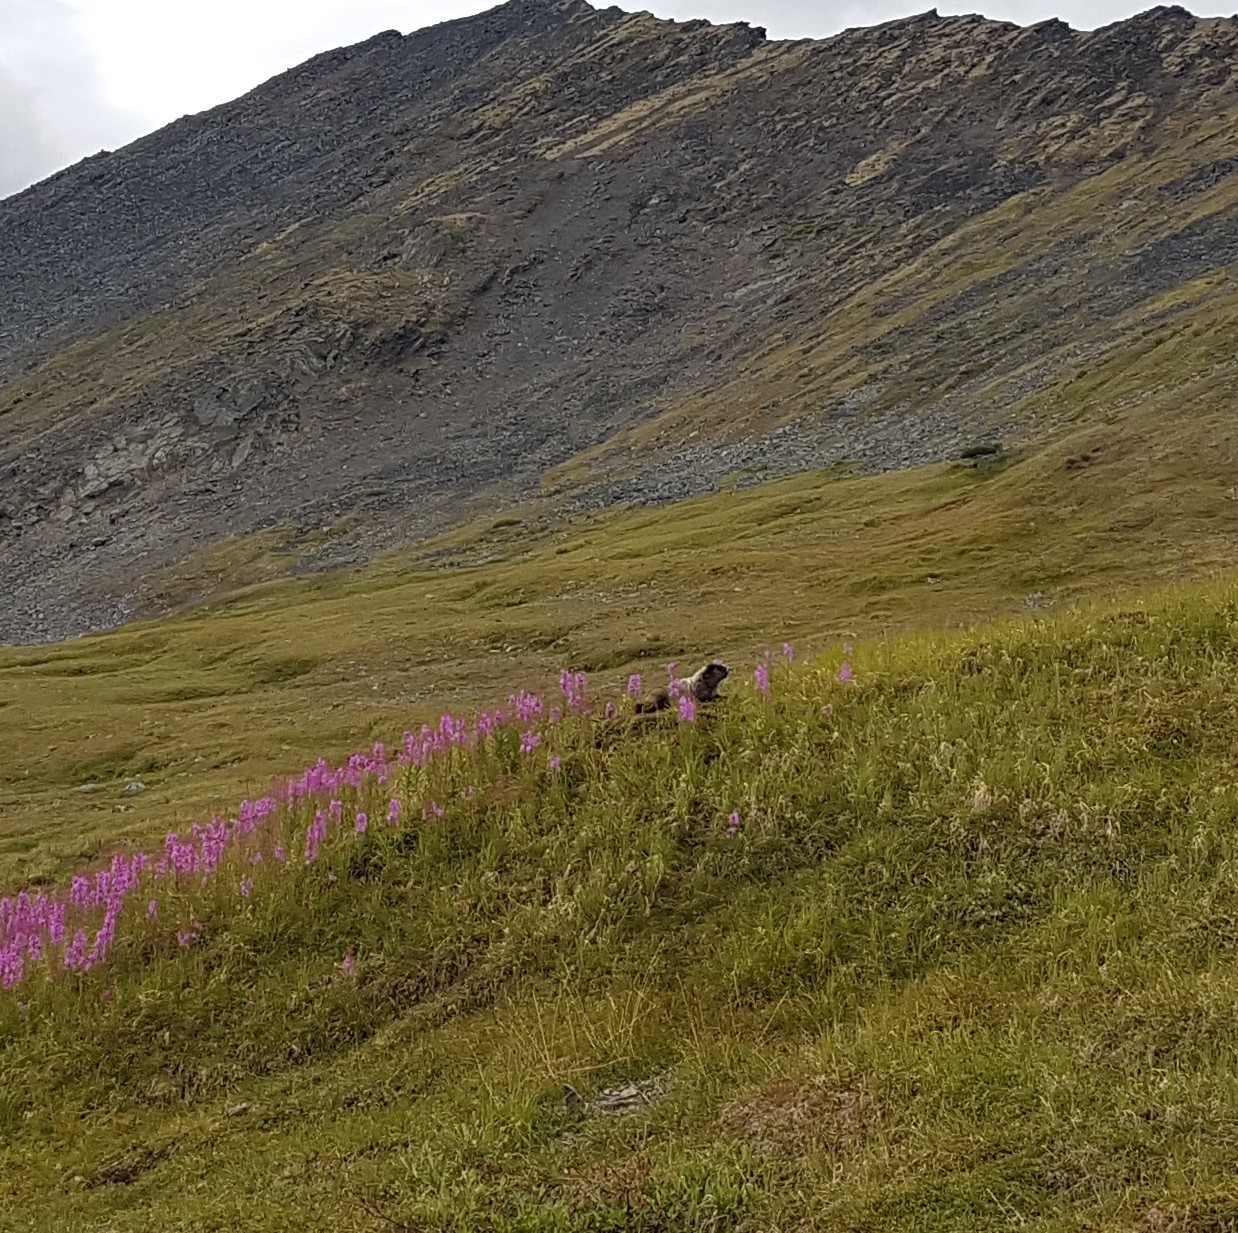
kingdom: Animalia
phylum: Chordata
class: Mammalia
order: Rodentia
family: Sciuridae
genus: Marmota
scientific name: Marmota caligata
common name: Hoary marmot
